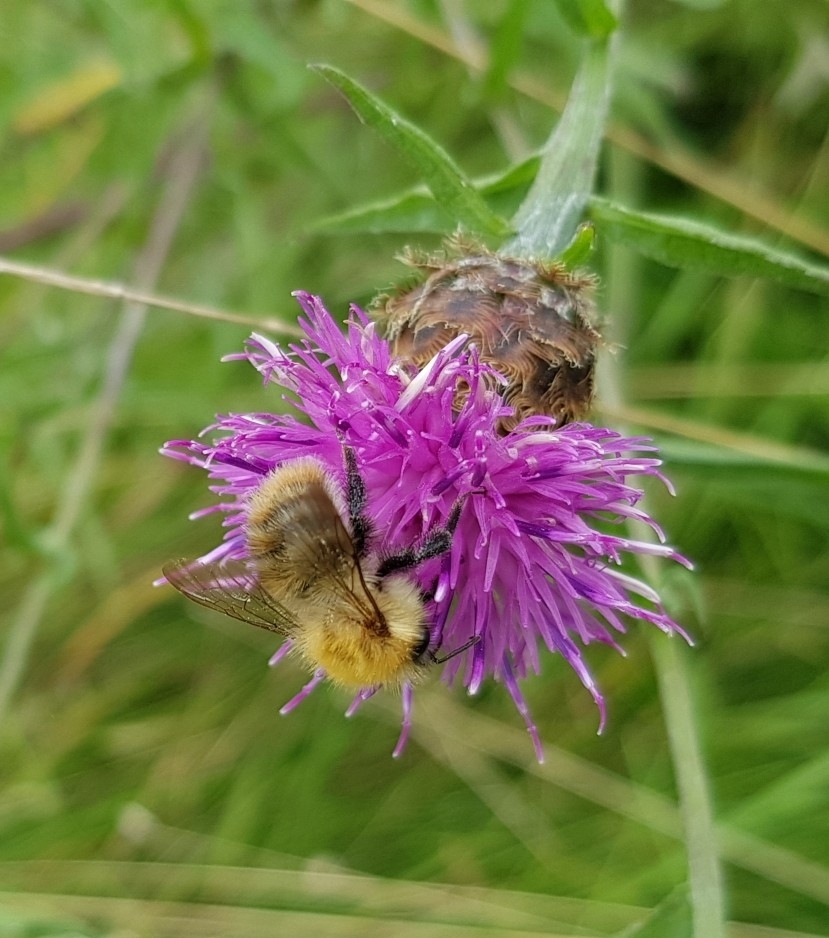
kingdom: Animalia
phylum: Arthropoda
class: Insecta
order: Hymenoptera
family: Apidae
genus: Bombus
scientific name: Bombus pascuorum
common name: Common carder bee
